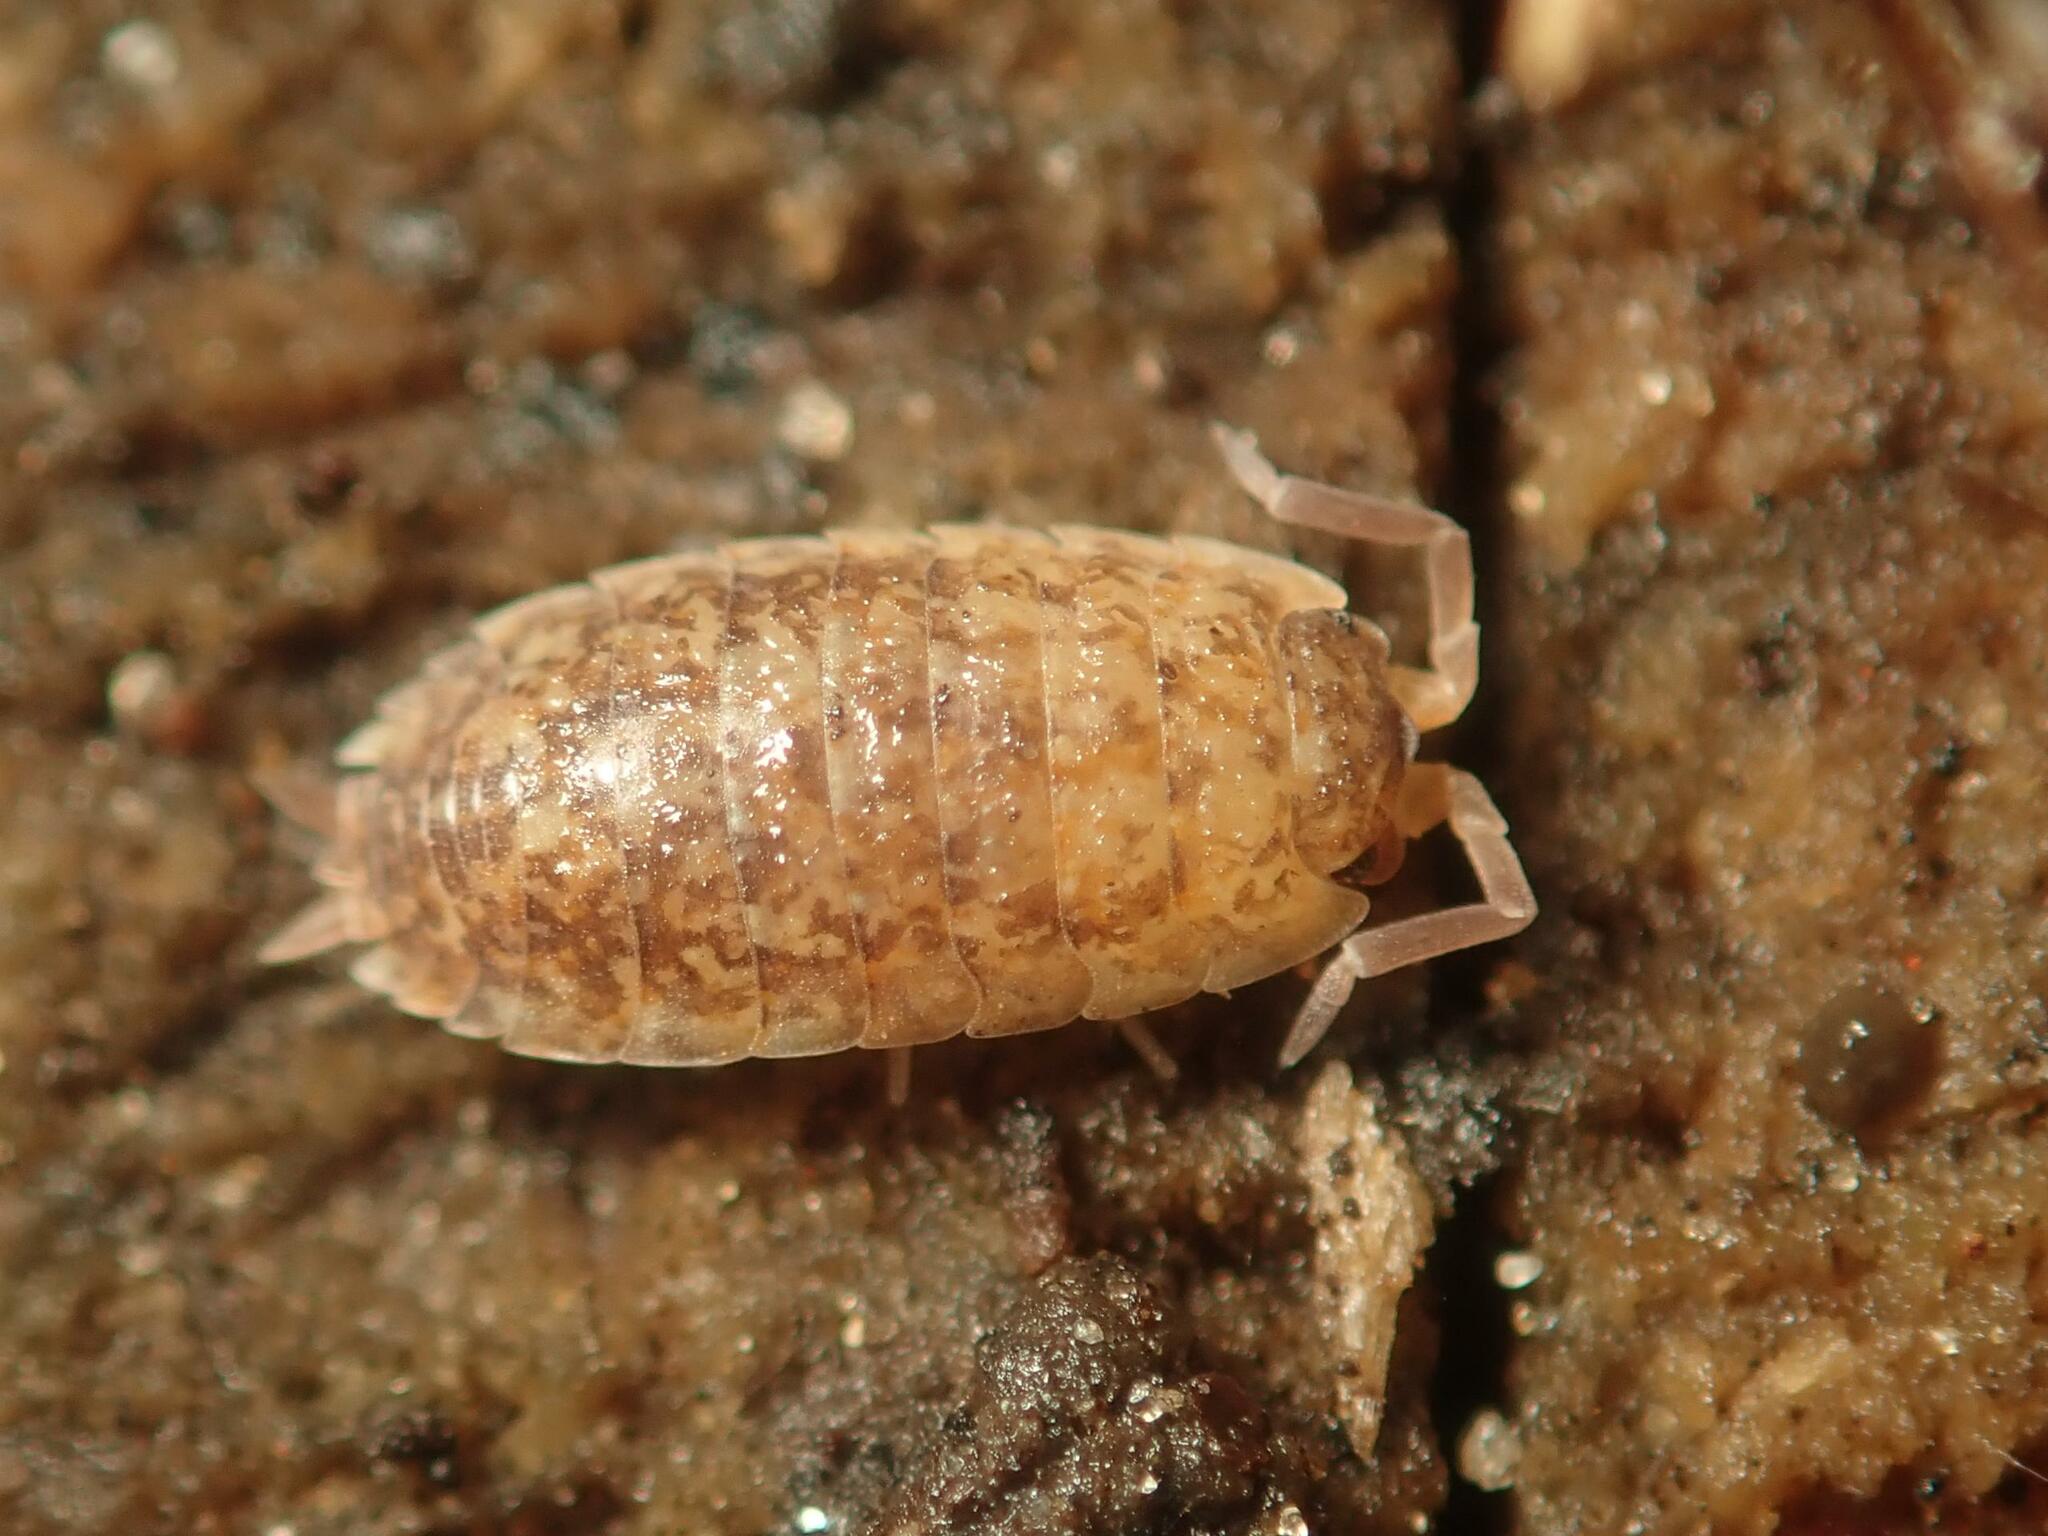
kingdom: Animalia
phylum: Arthropoda
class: Malacostraca
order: Isopoda
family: Porcellionidae
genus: Porcellio
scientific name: Porcellio scaber
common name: Common rough woodlouse
